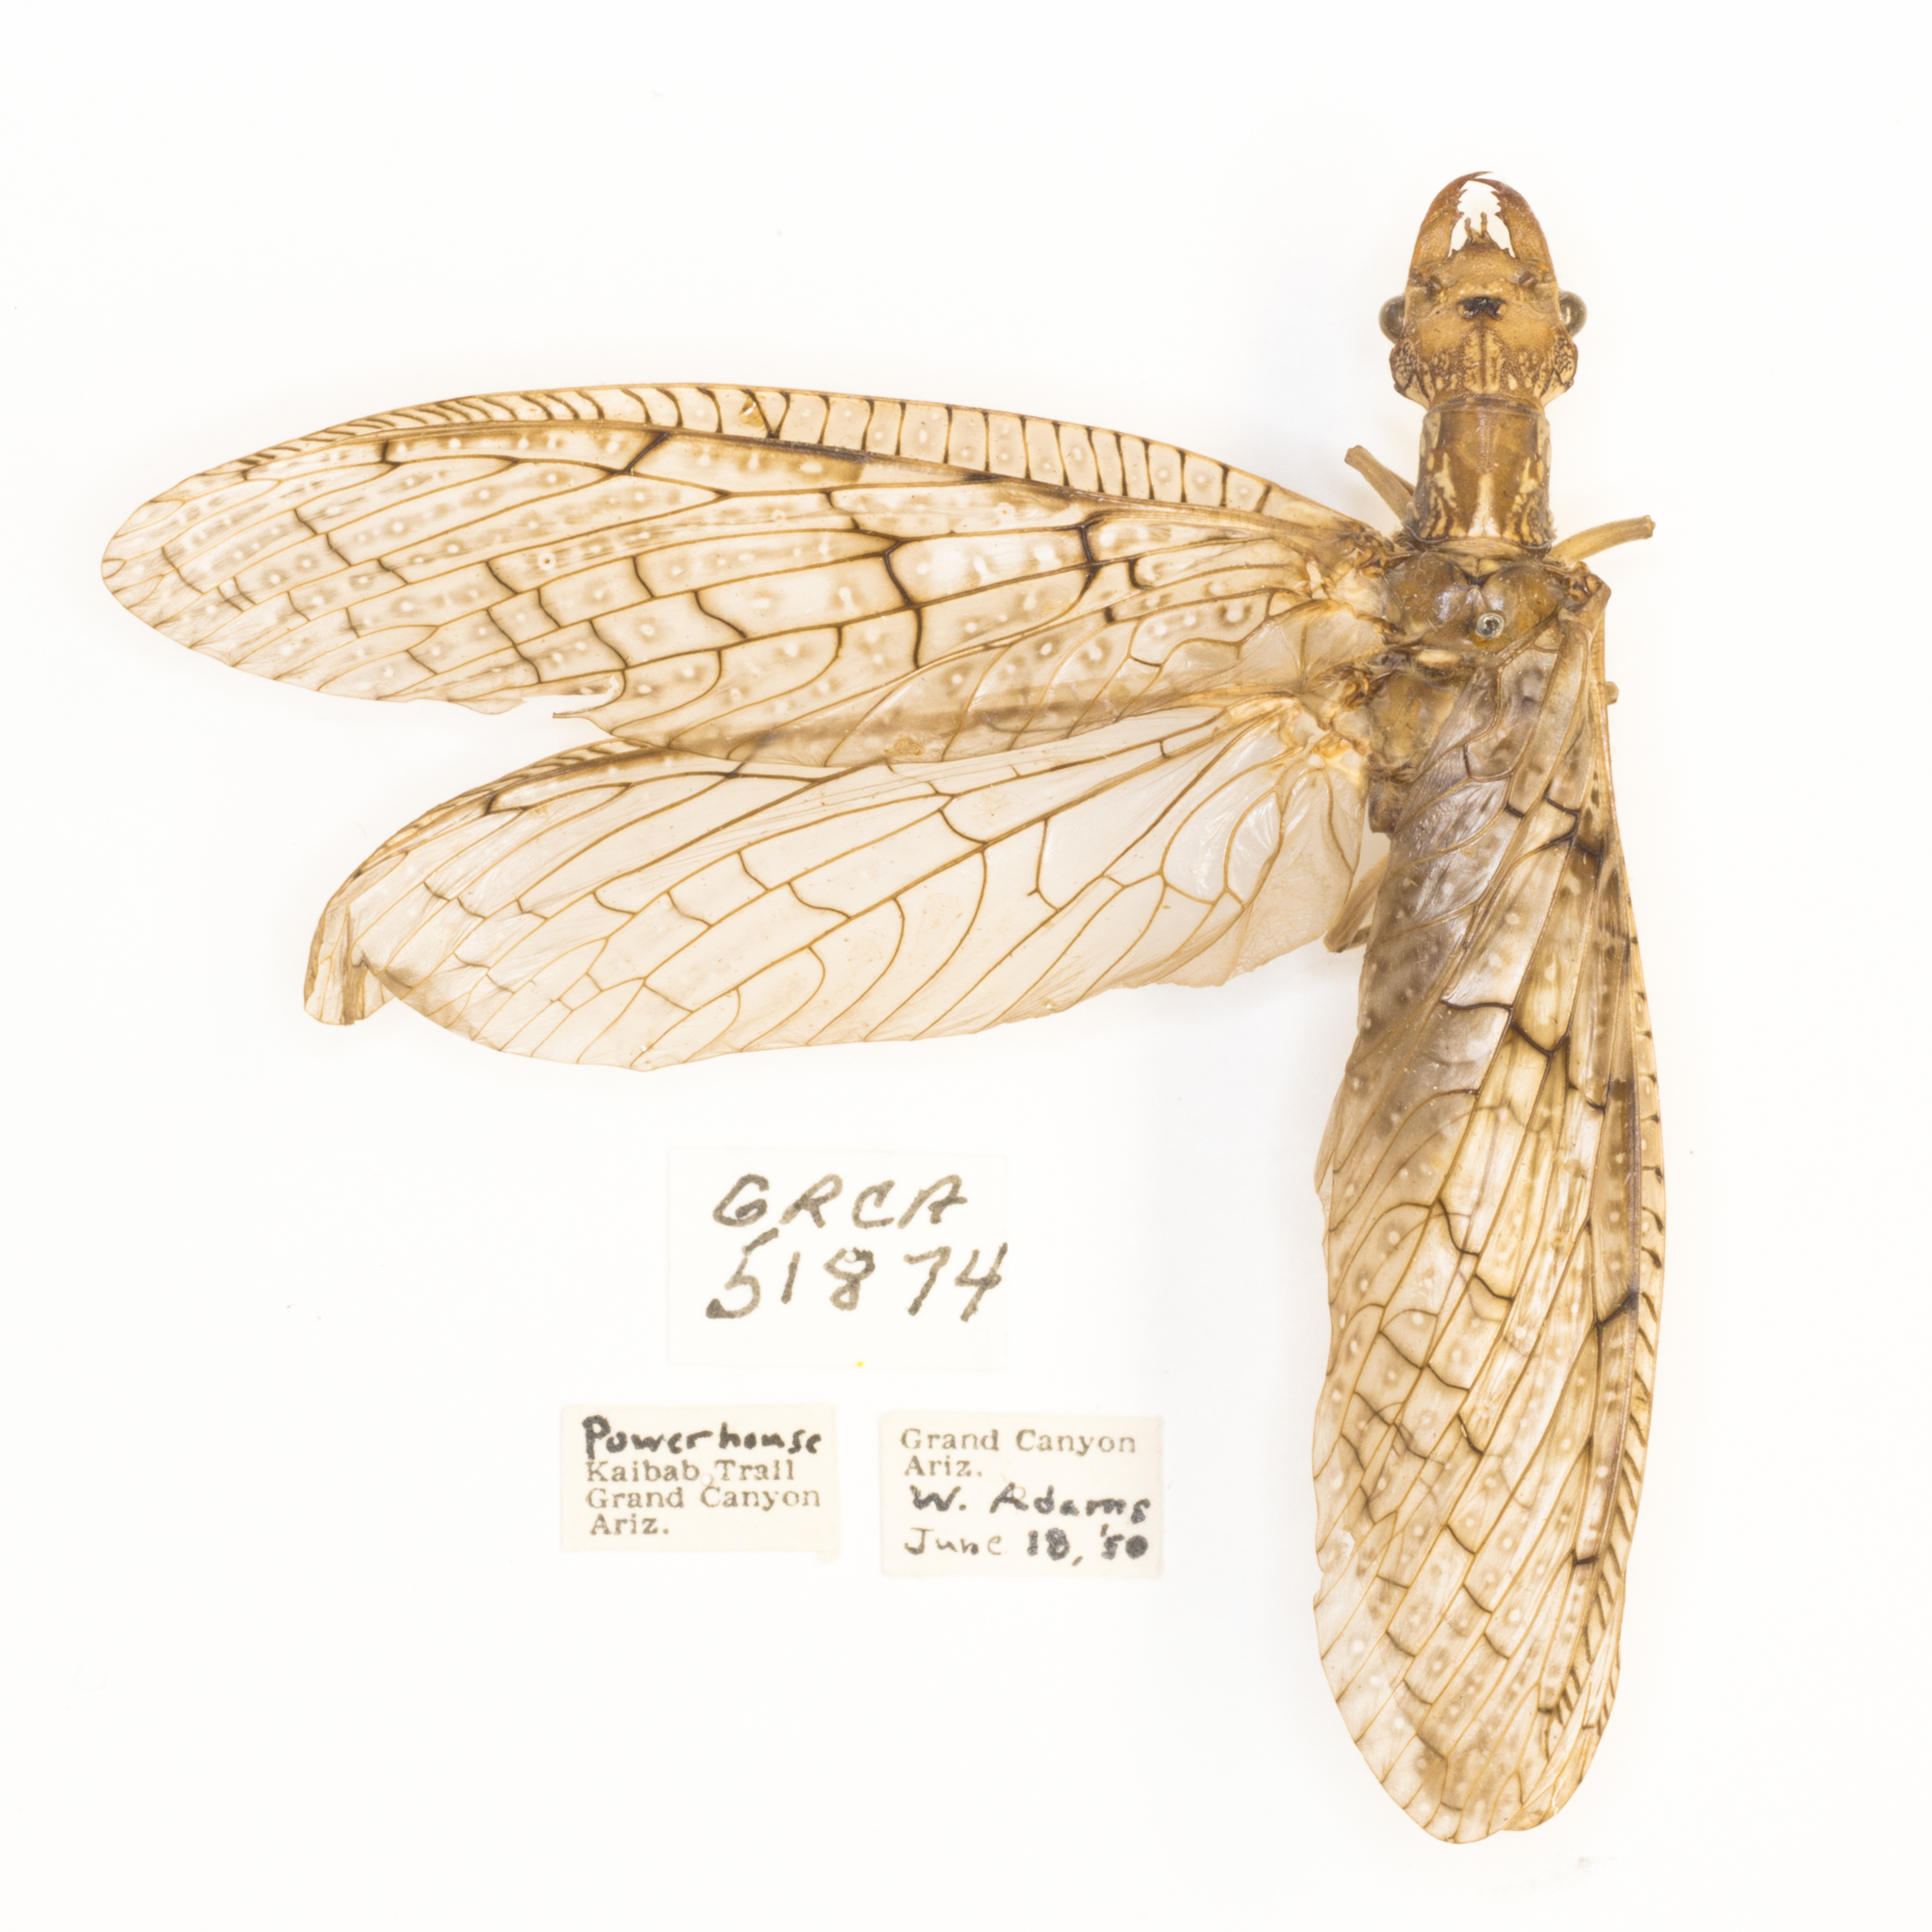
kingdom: Animalia
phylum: Arthropoda
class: Insecta
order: Megaloptera
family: Corydalidae
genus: Corydalus
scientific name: Corydalus texanus
